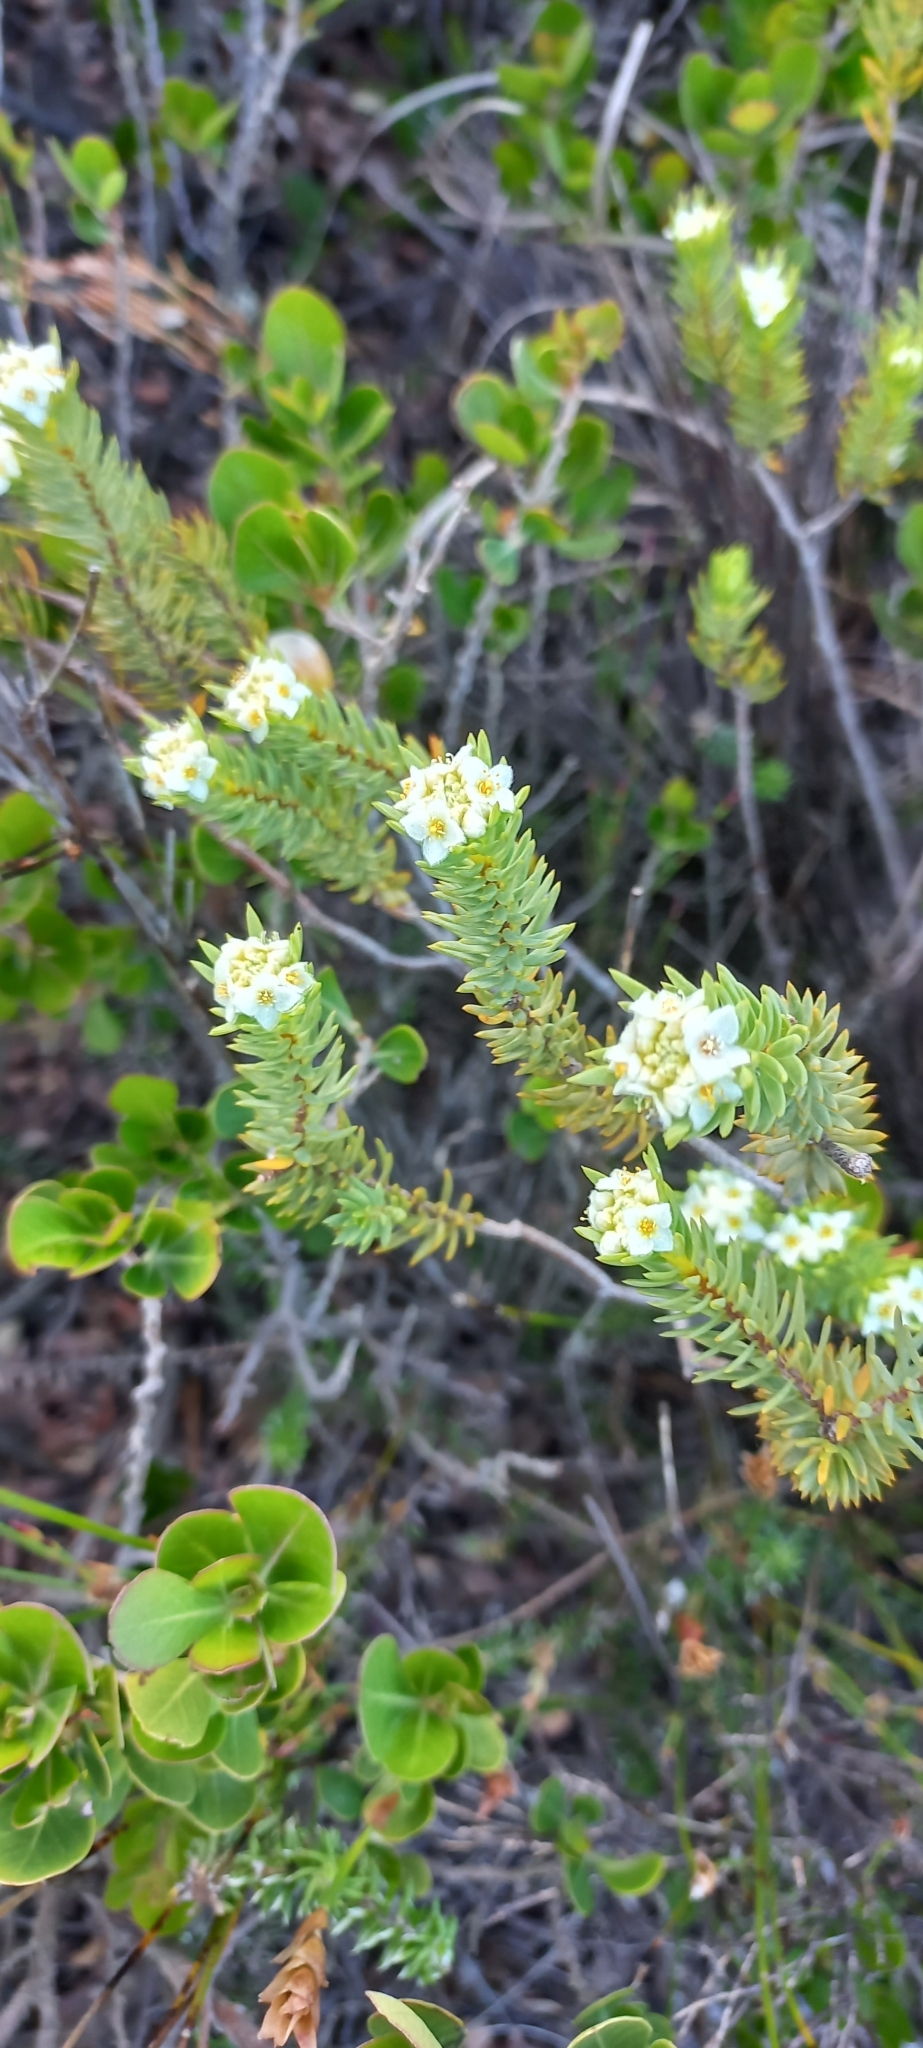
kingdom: Plantae
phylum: Tracheophyta
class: Magnoliopsida
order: Malvales
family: Thymelaeaceae
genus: Lachnaea
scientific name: Lachnaea densiflora
